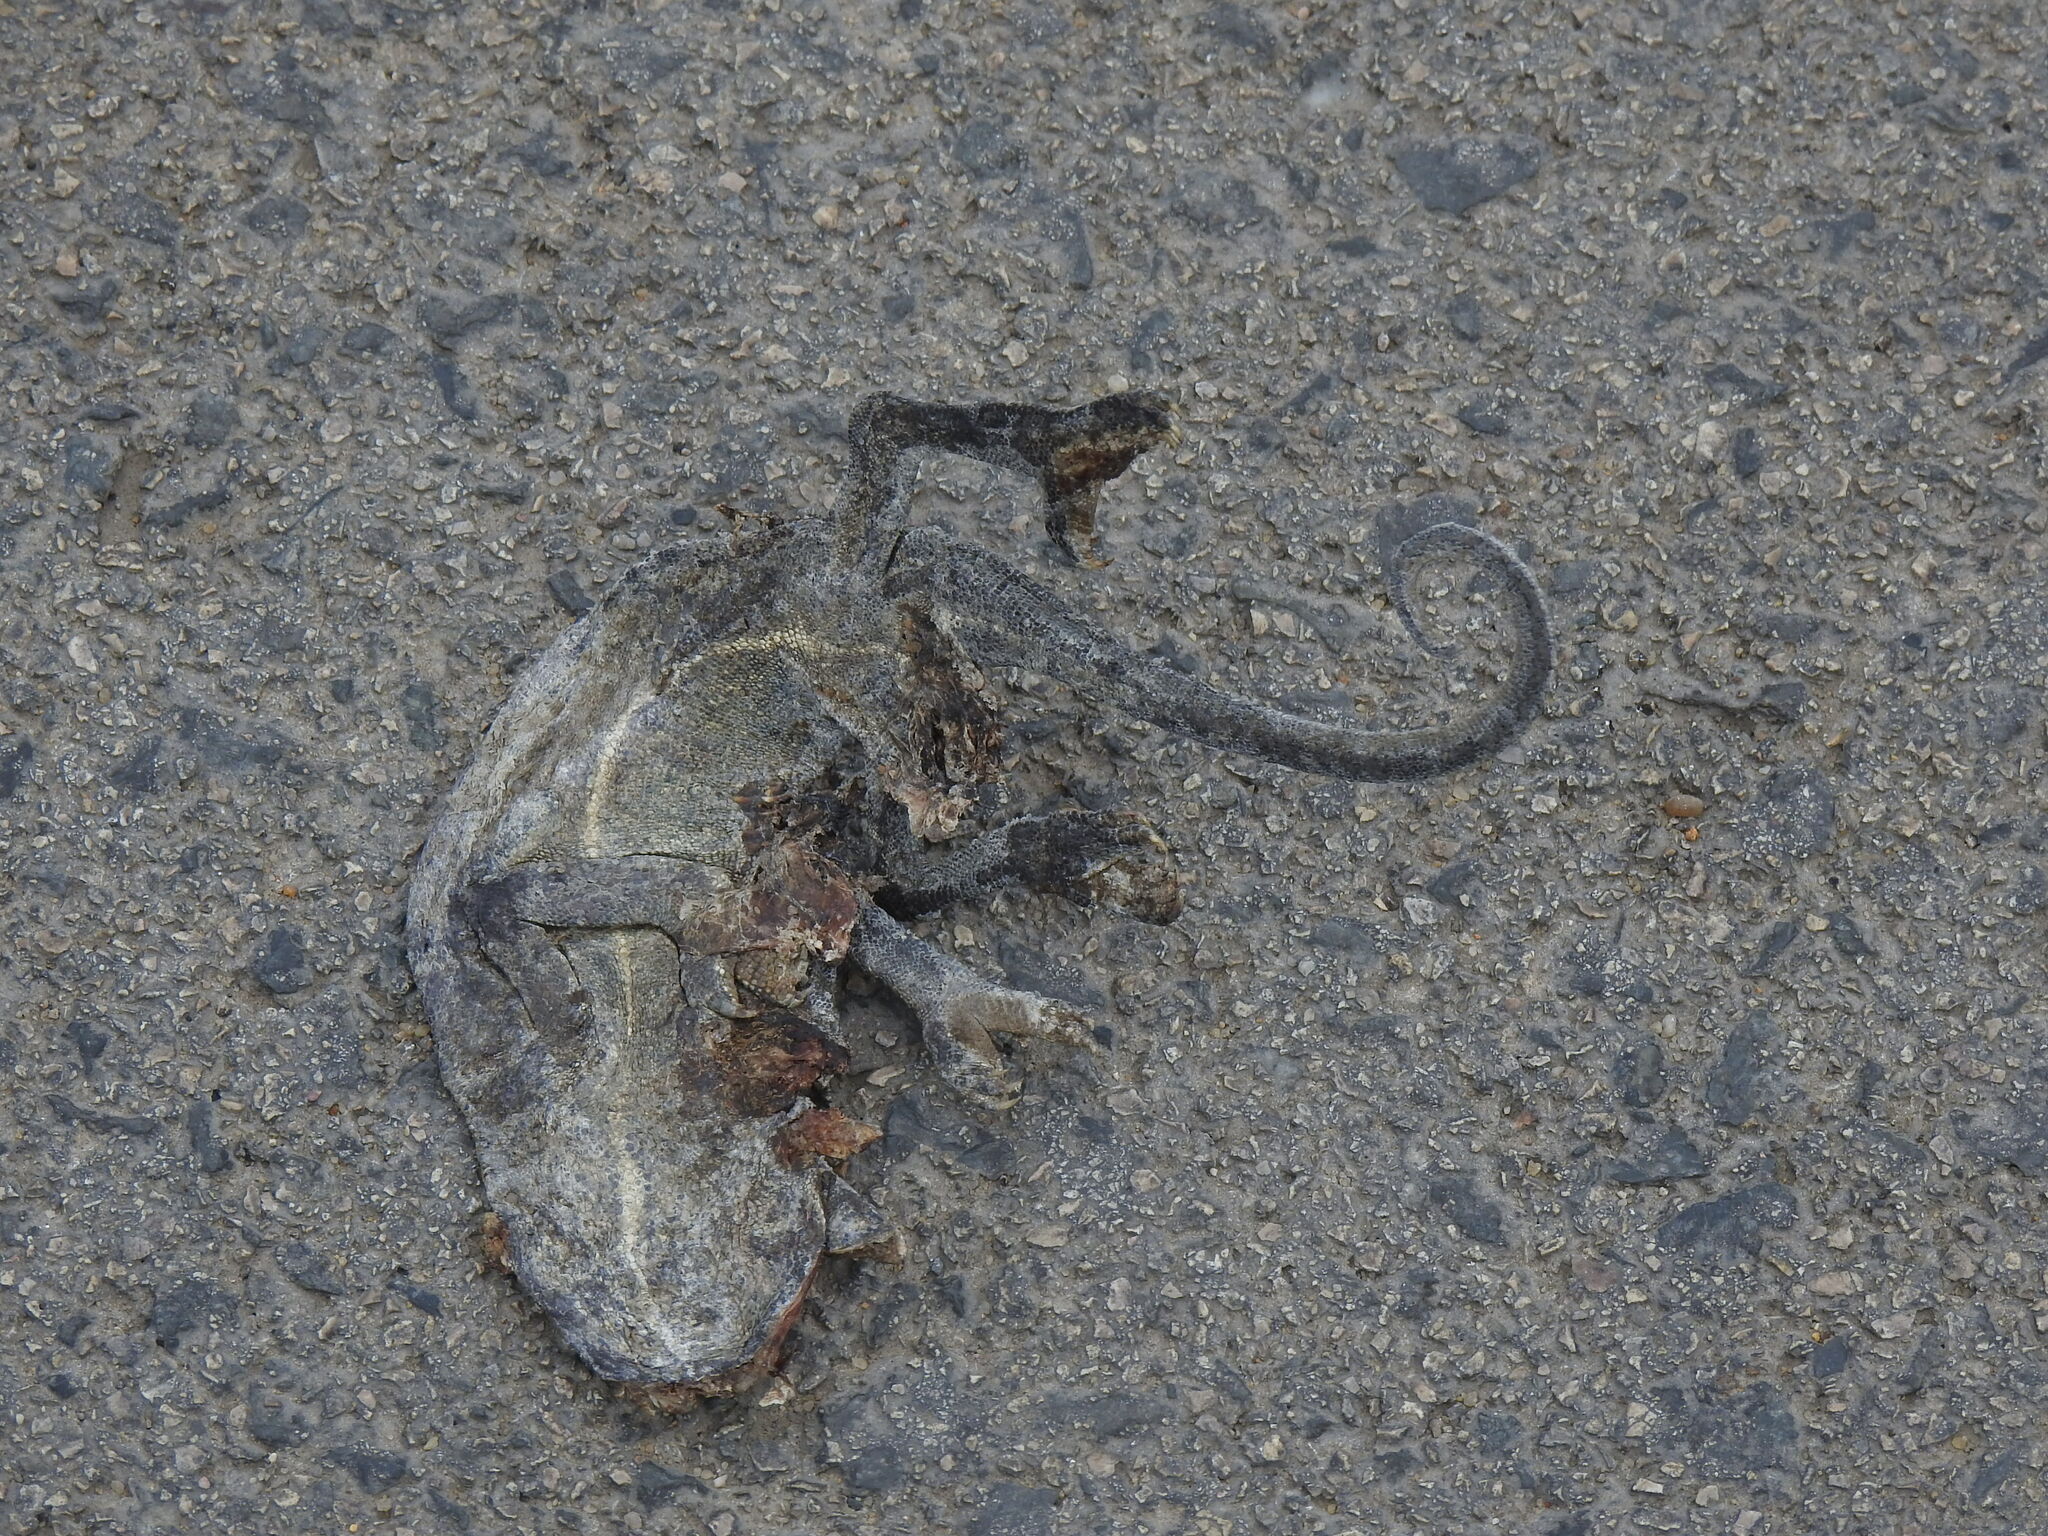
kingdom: Animalia
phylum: Chordata
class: Squamata
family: Chamaeleonidae
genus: Chamaeleo
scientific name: Chamaeleo chamaeleon
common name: Mediterranean chameleon
